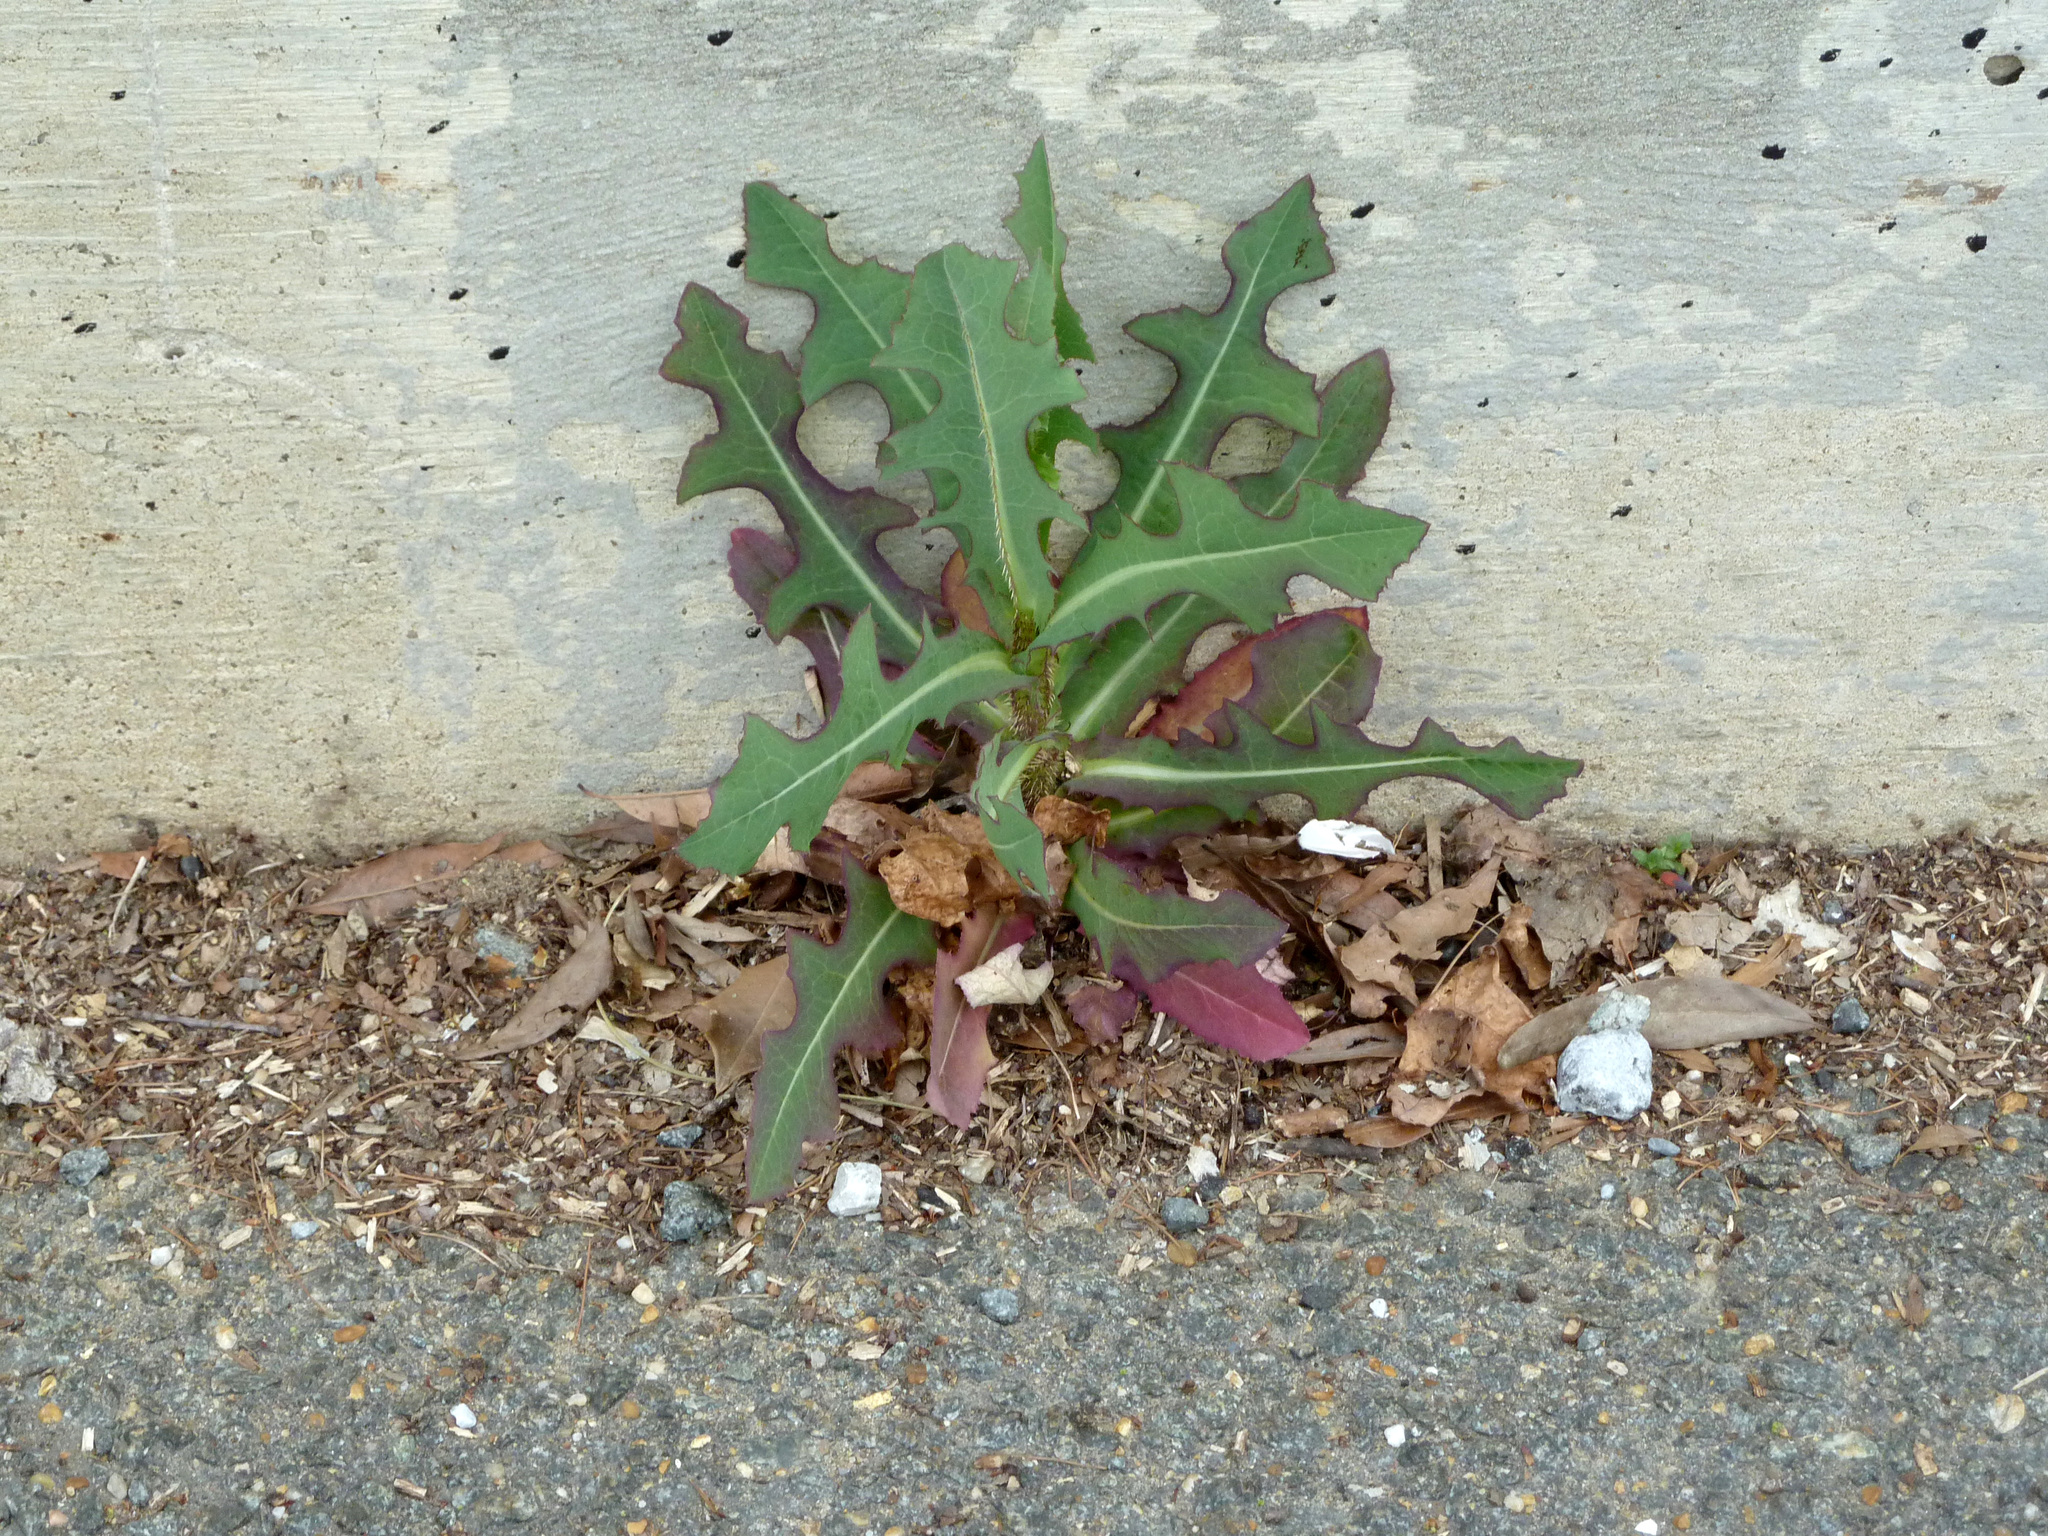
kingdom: Plantae
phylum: Tracheophyta
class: Magnoliopsida
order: Asterales
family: Asteraceae
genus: Lactuca
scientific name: Lactuca serriola
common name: Prickly lettuce
